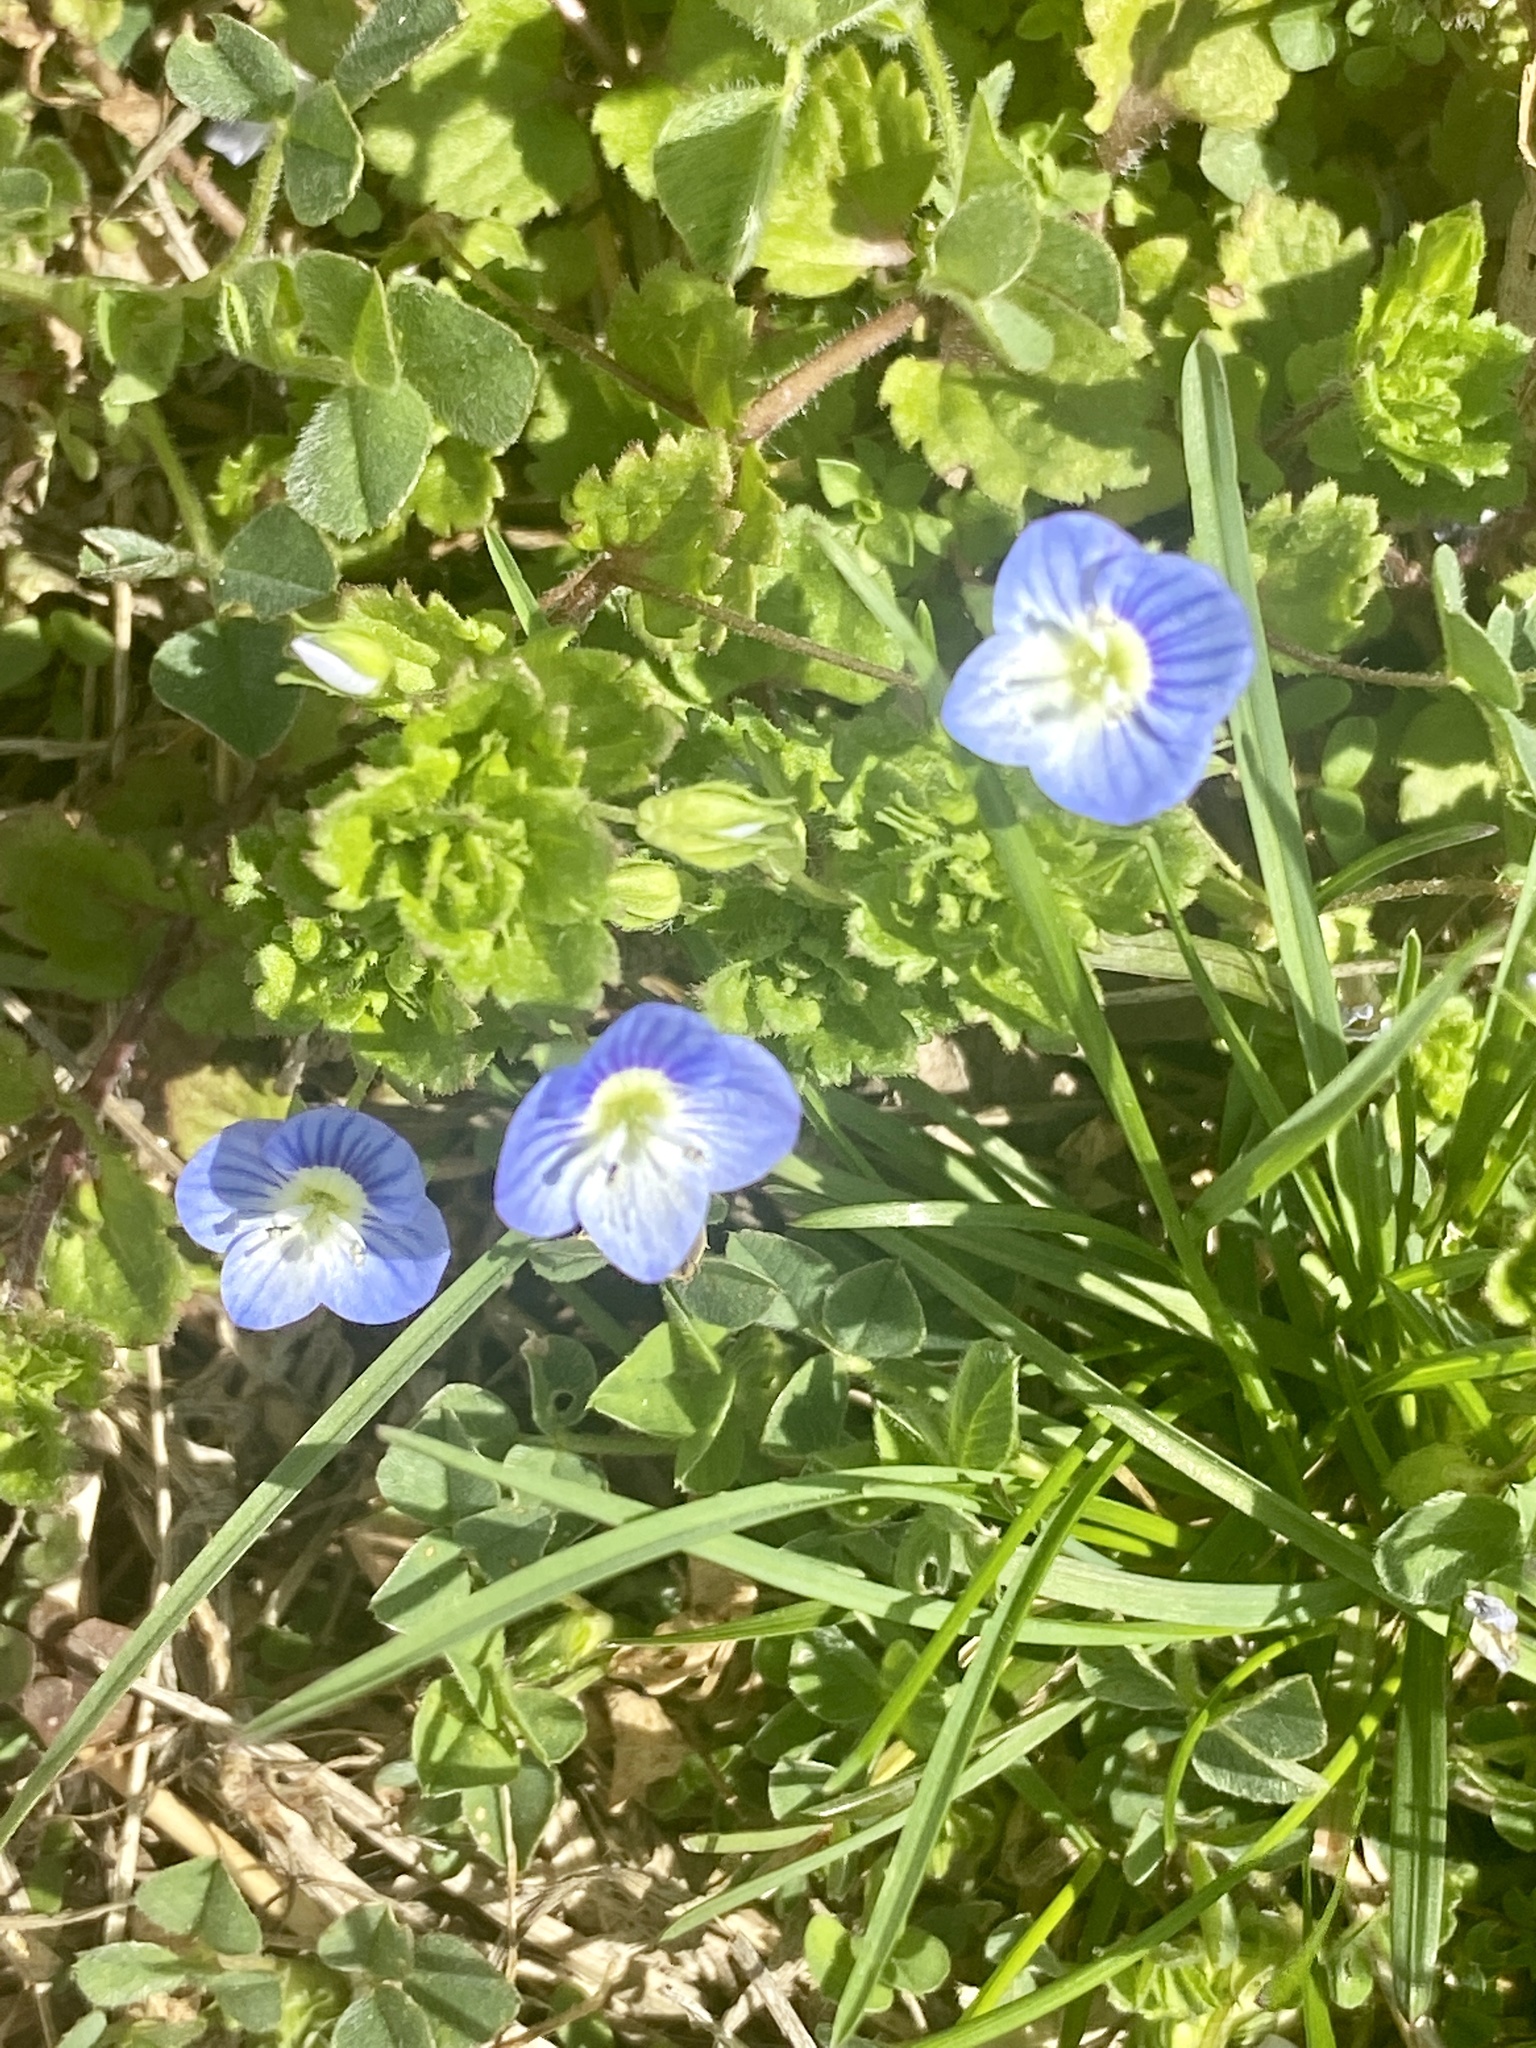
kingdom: Plantae
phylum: Tracheophyta
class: Magnoliopsida
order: Lamiales
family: Plantaginaceae
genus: Veronica
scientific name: Veronica persica
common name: Common field-speedwell
